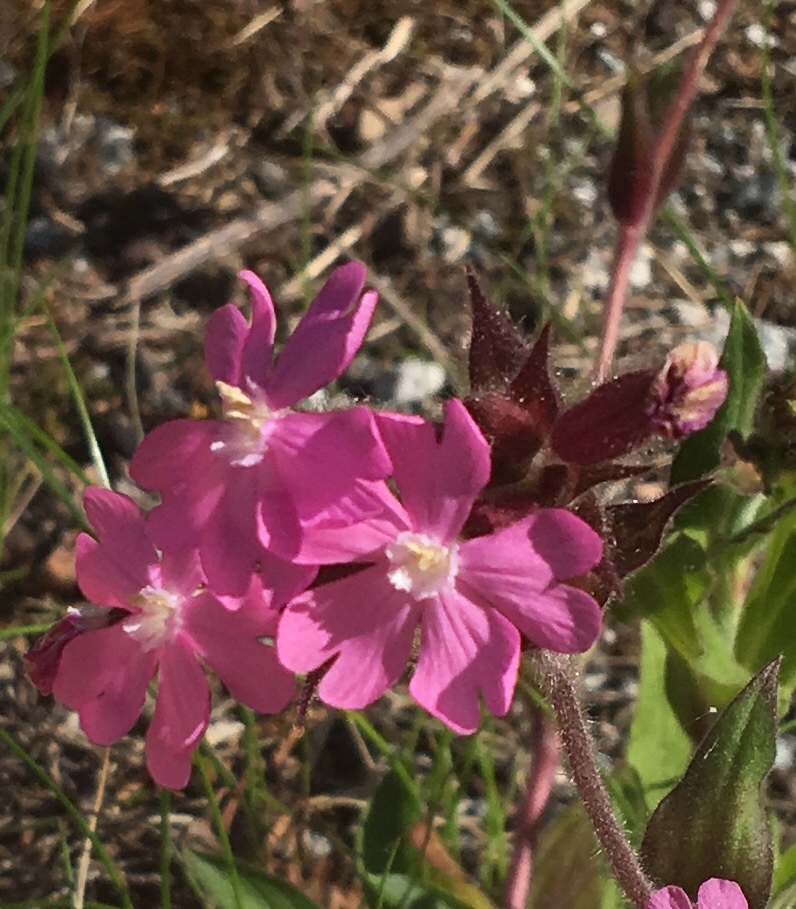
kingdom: Plantae
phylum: Tracheophyta
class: Magnoliopsida
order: Caryophyllales
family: Caryophyllaceae
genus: Silene
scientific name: Silene dioica
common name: Red campion
